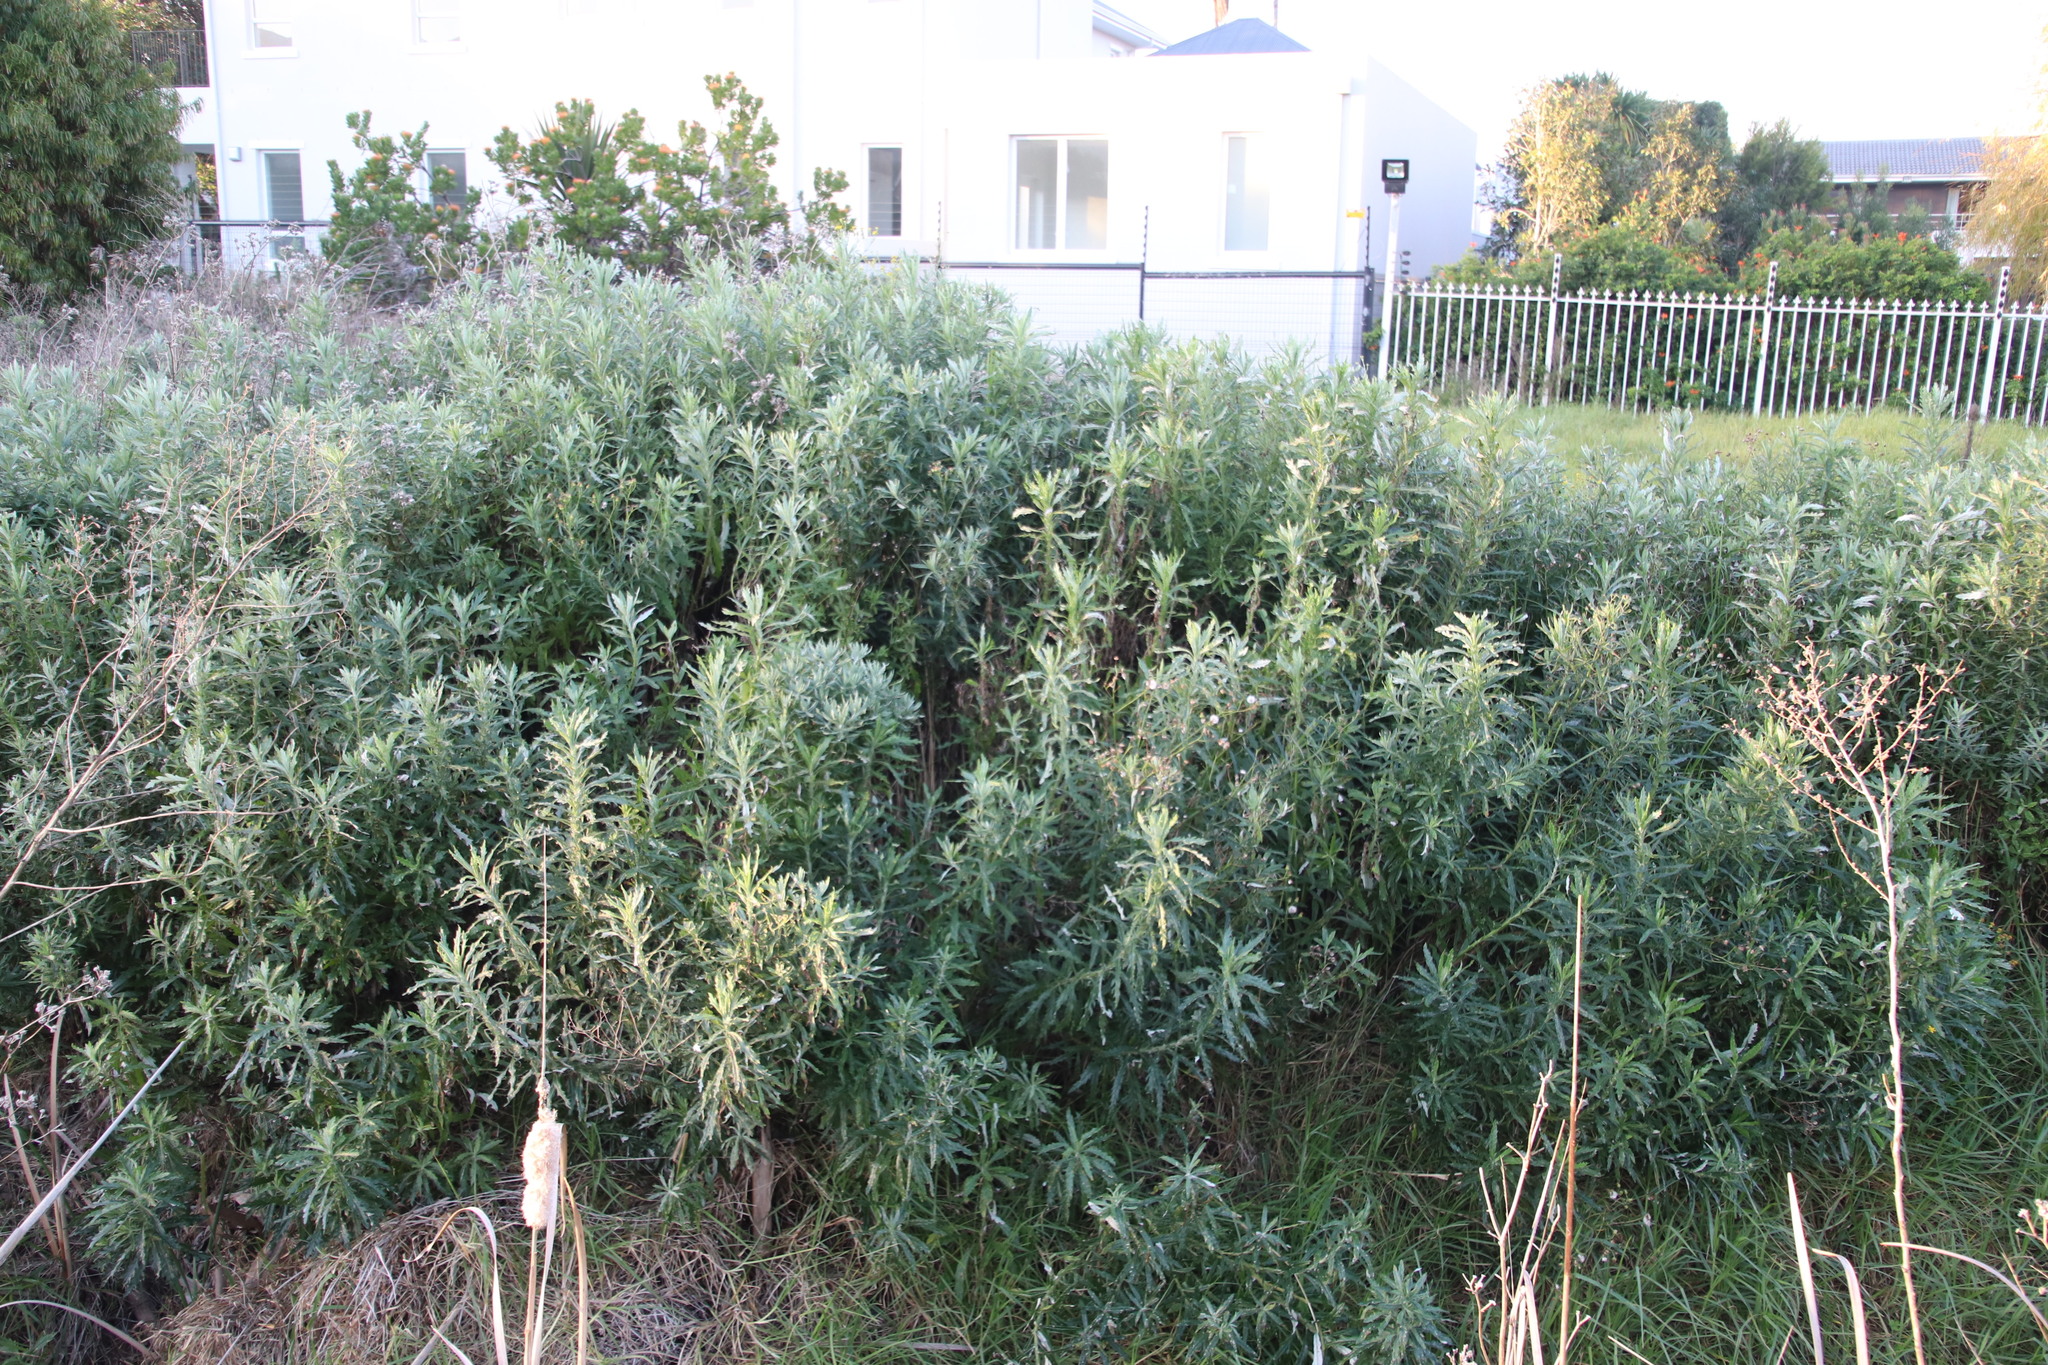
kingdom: Plantae
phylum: Tracheophyta
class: Magnoliopsida
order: Asterales
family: Asteraceae
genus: Senecio
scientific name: Senecio pterophorus
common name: Shoddy ragwort
